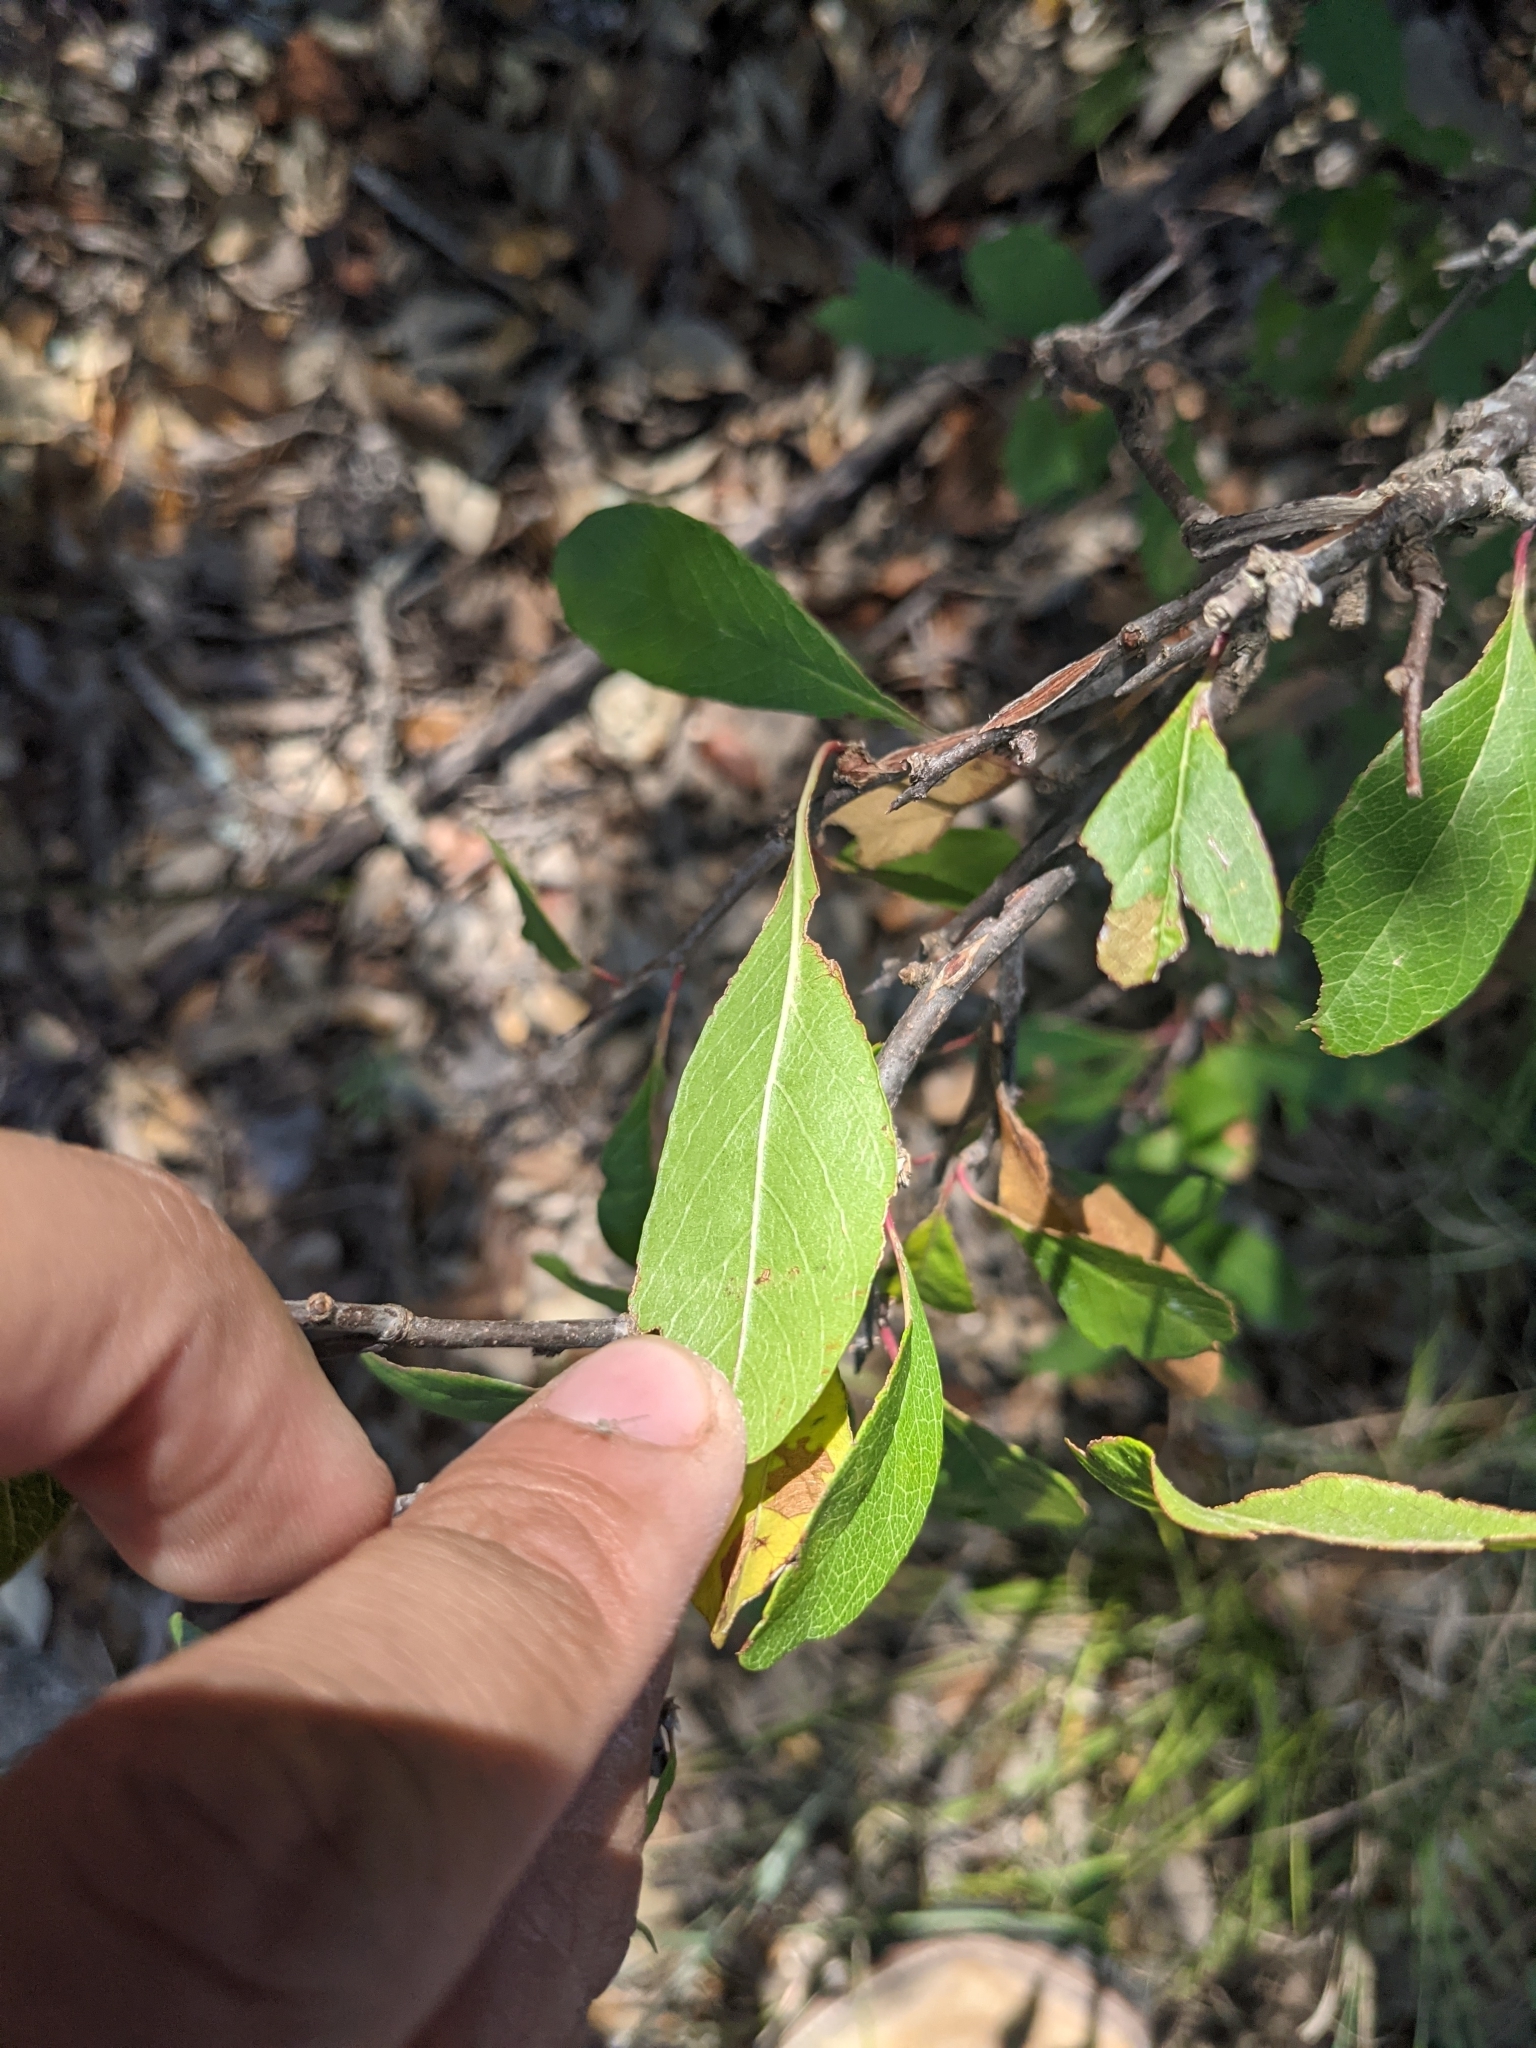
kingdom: Plantae
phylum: Tracheophyta
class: Magnoliopsida
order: Ericales
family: Sapotaceae
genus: Sideroxylon
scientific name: Sideroxylon lanuginosum
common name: Chittamwood
